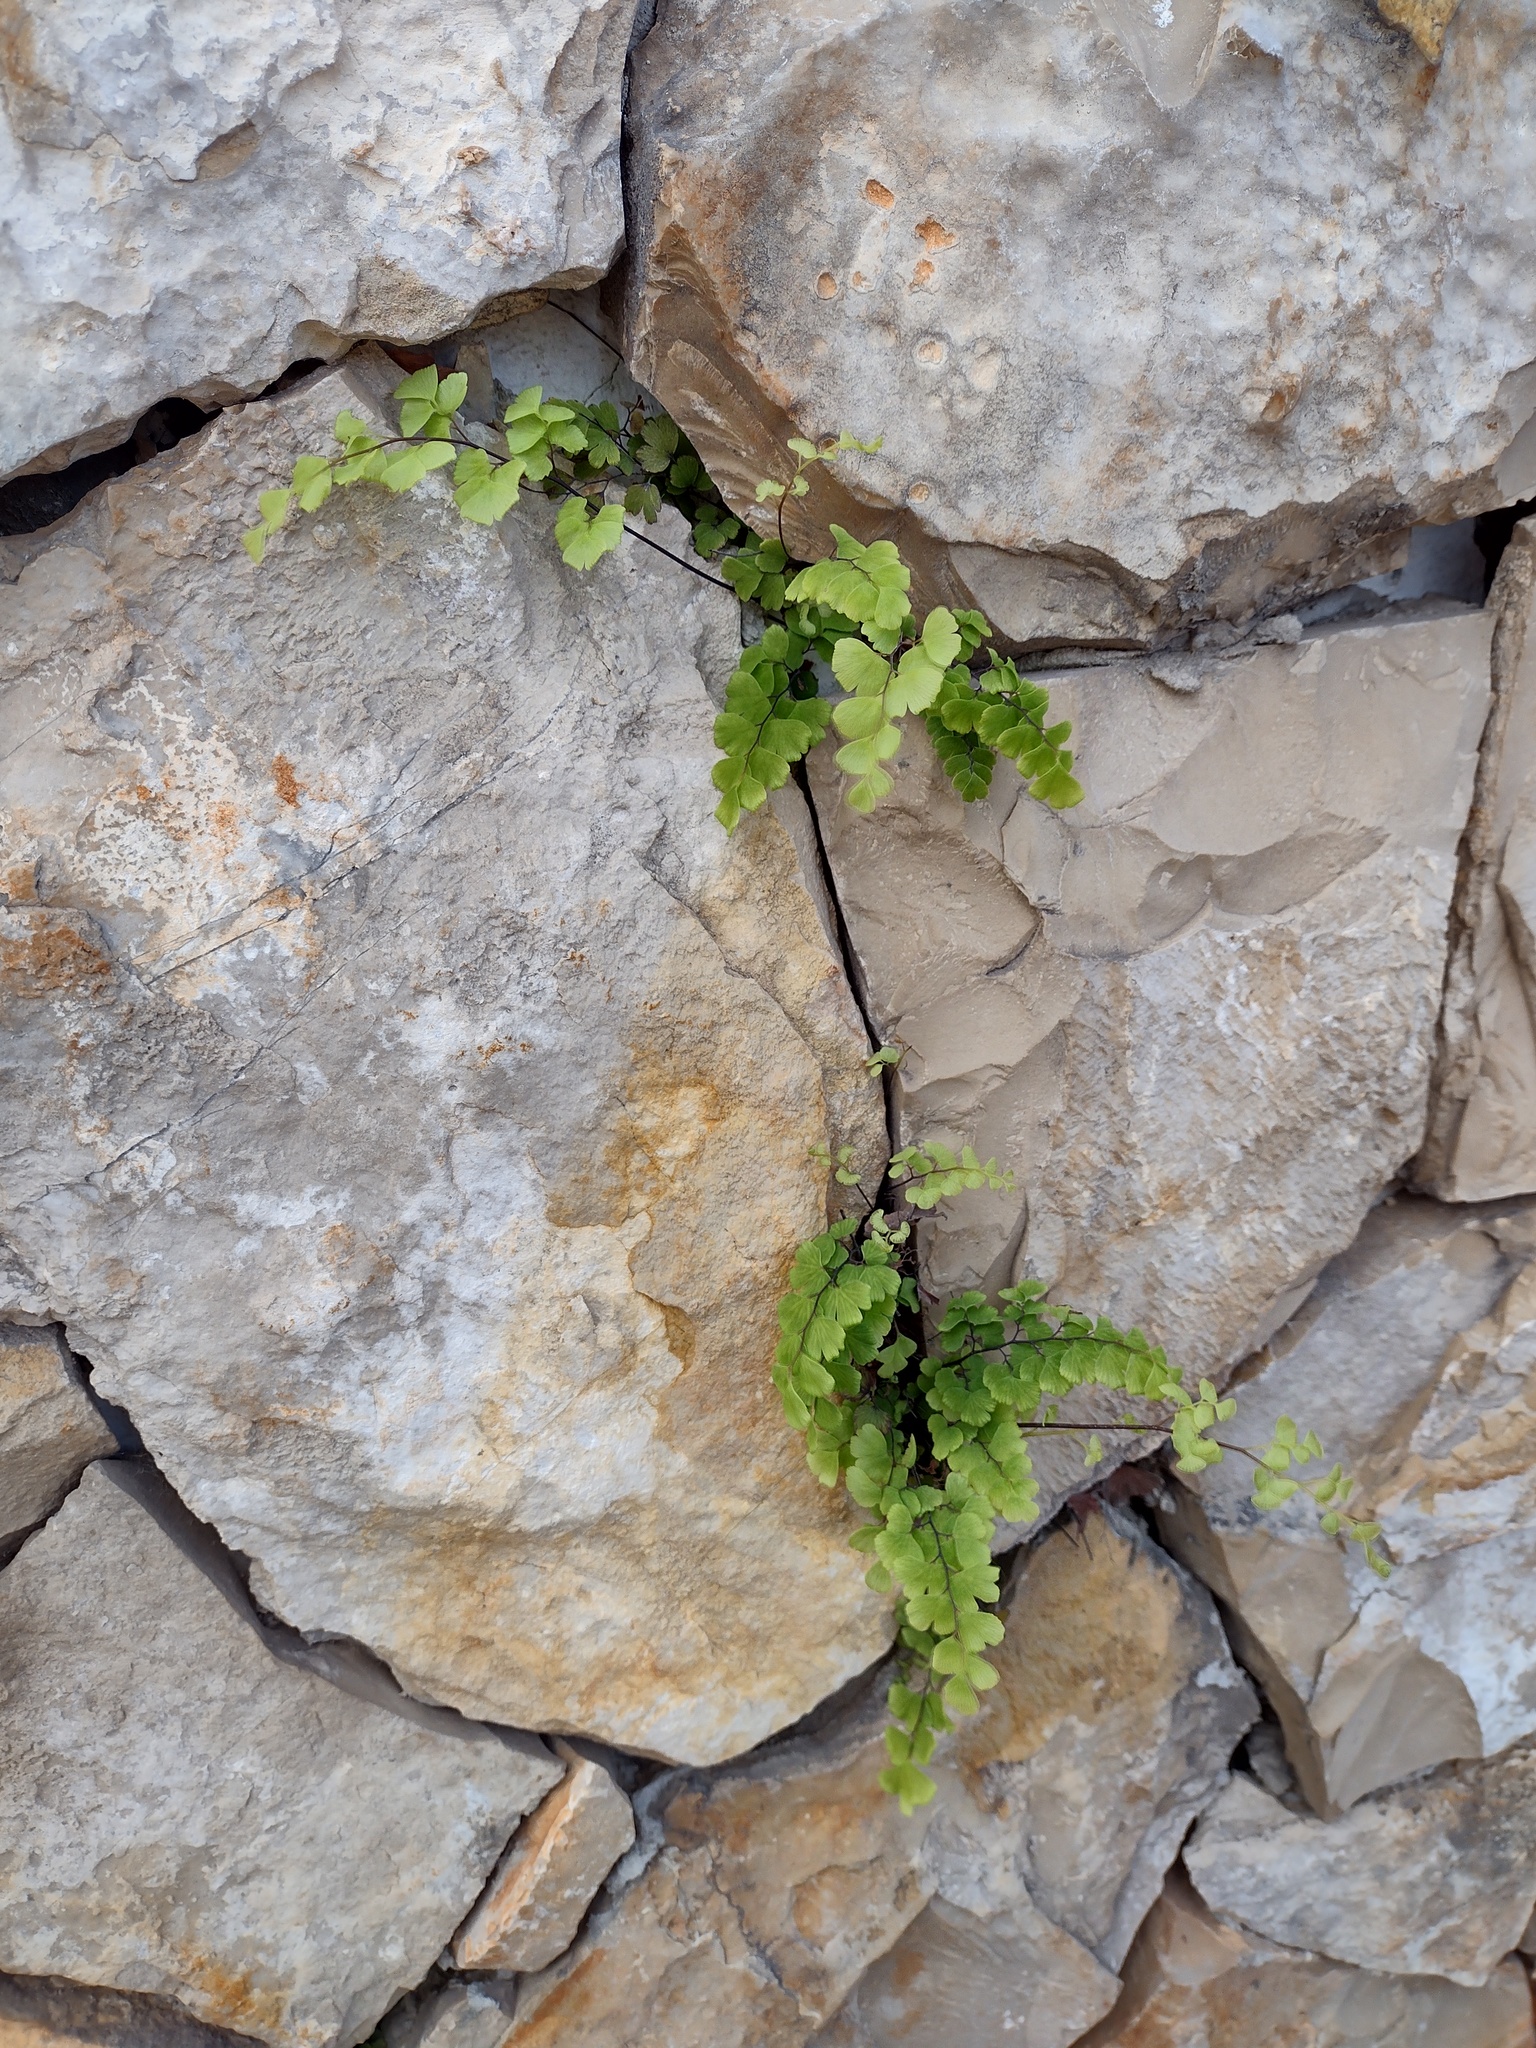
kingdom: Plantae
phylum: Tracheophyta
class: Polypodiopsida
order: Polypodiales
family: Pteridaceae
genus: Adiantum
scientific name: Adiantum capillus-veneris
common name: Maidenhair fern
